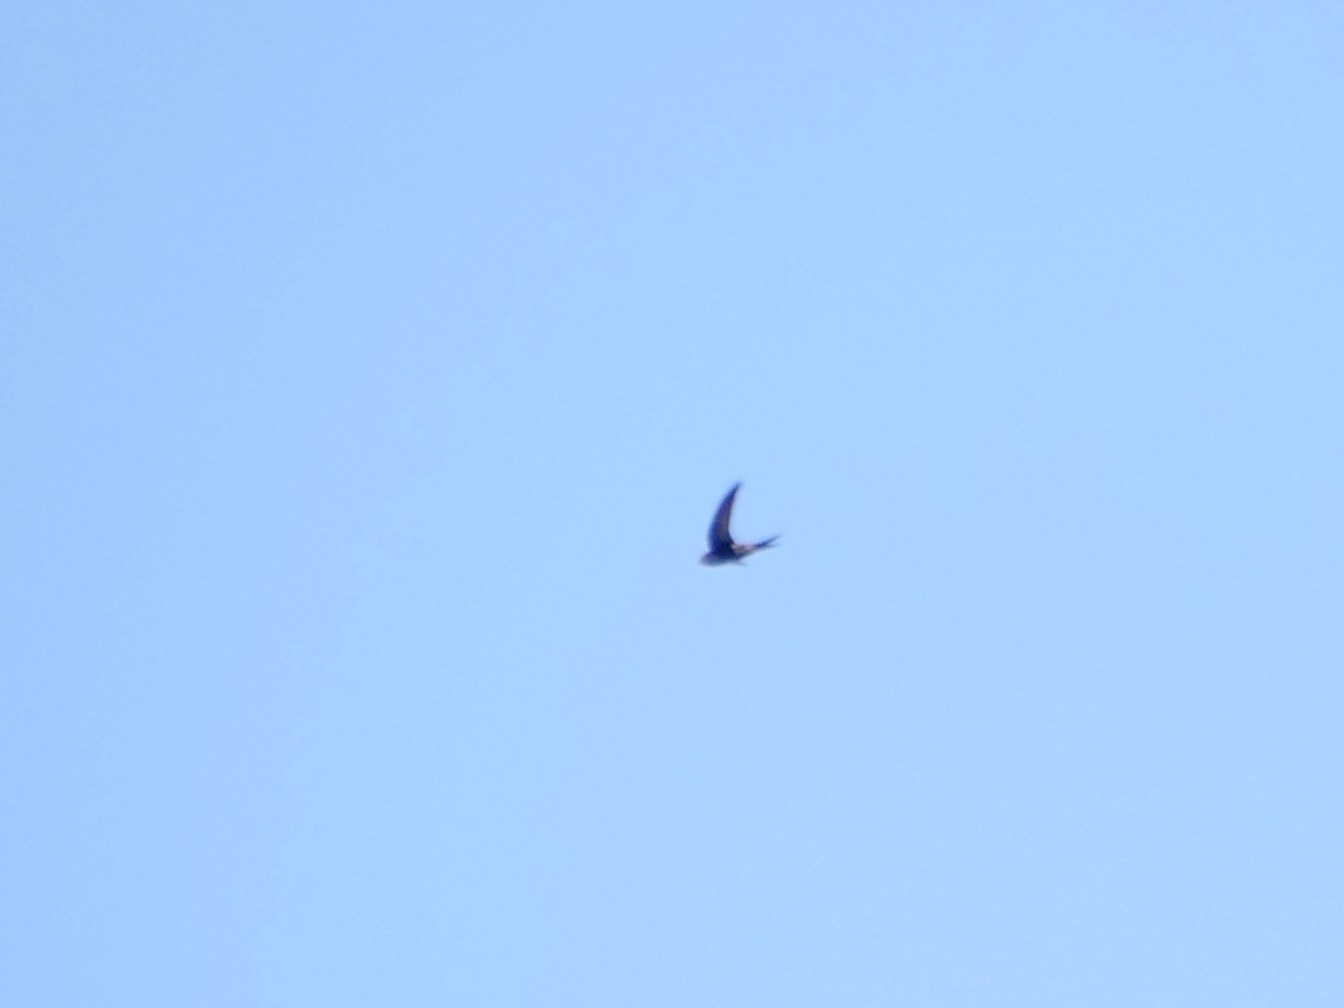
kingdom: Animalia
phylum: Chordata
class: Aves
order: Apodiformes
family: Apodidae
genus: Apus
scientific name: Apus apus
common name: Common swift
